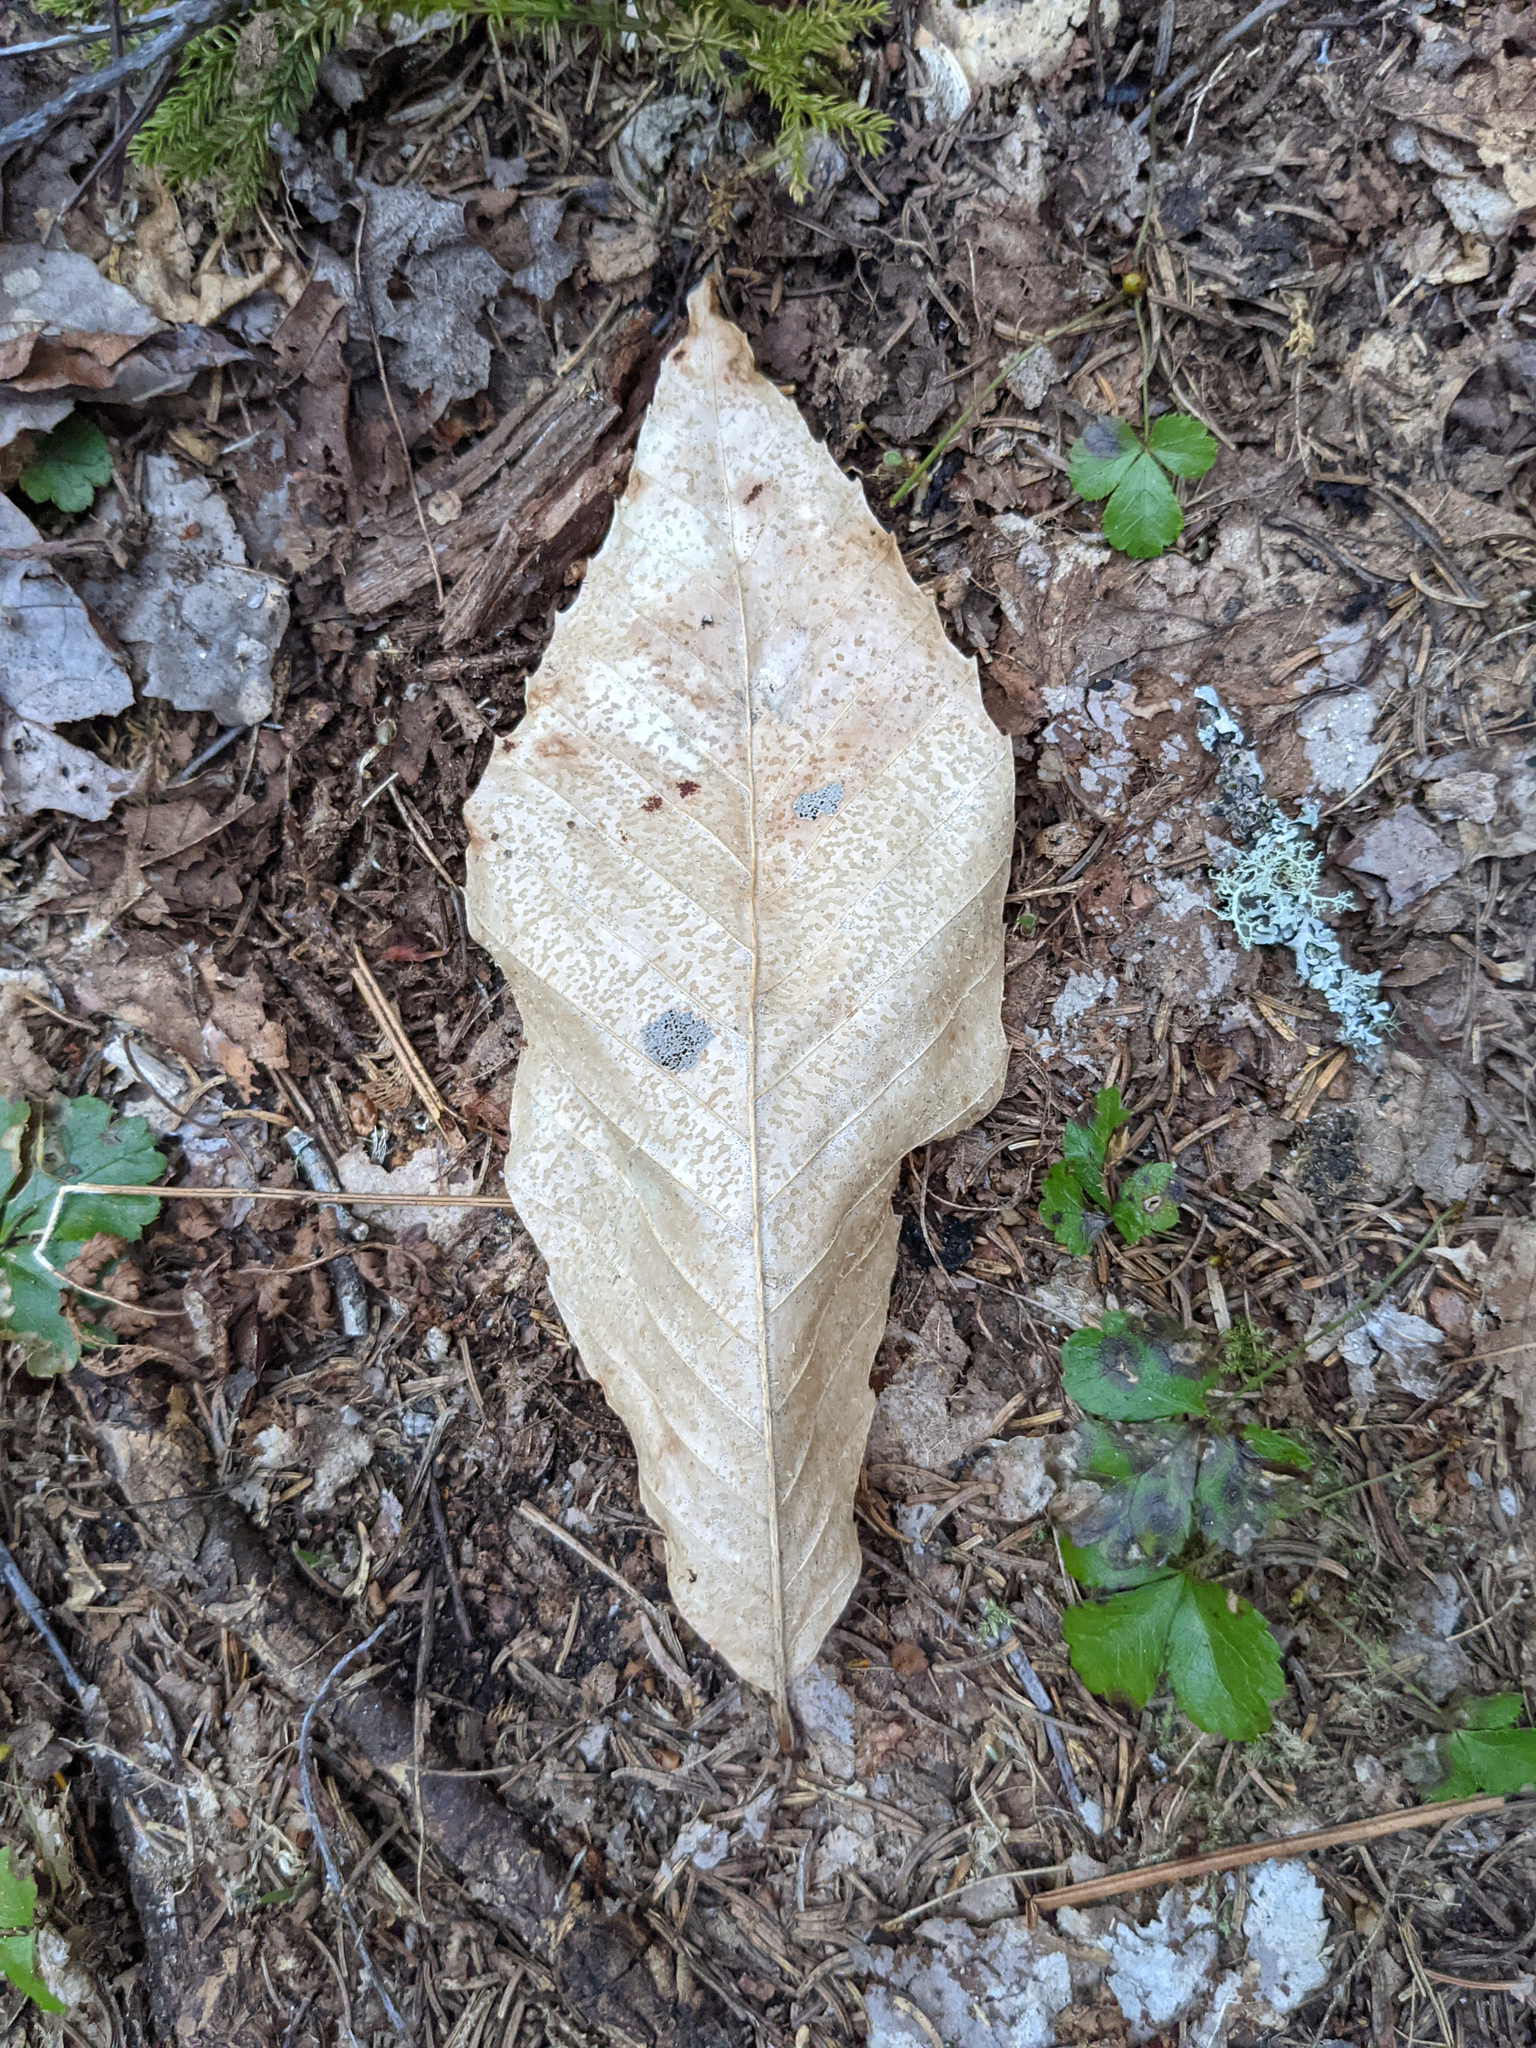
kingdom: Plantae
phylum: Tracheophyta
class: Magnoliopsida
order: Fagales
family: Fagaceae
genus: Fagus
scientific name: Fagus grandifolia
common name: American beech
